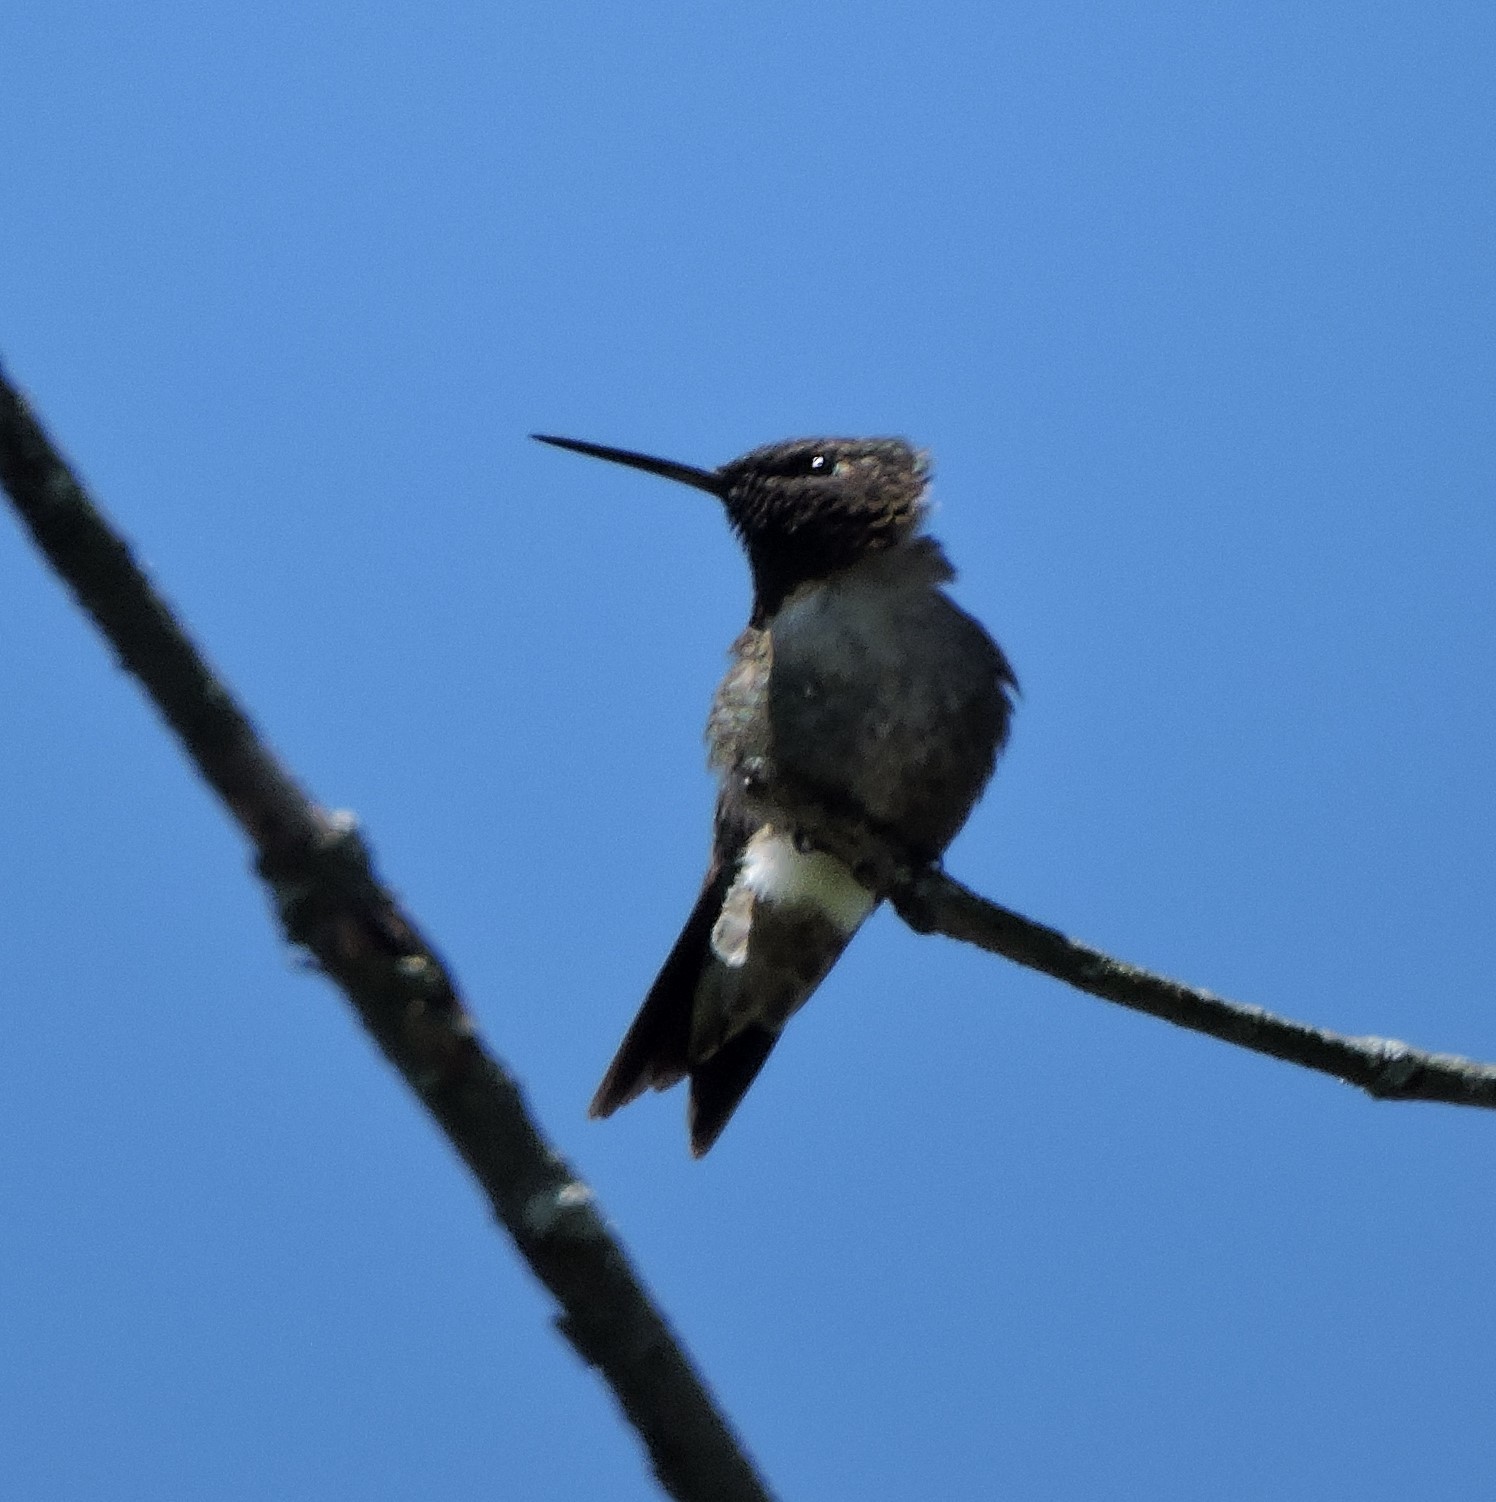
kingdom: Animalia
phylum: Chordata
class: Aves
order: Apodiformes
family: Trochilidae
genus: Archilochus
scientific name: Archilochus colubris
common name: Ruby-throated hummingbird
